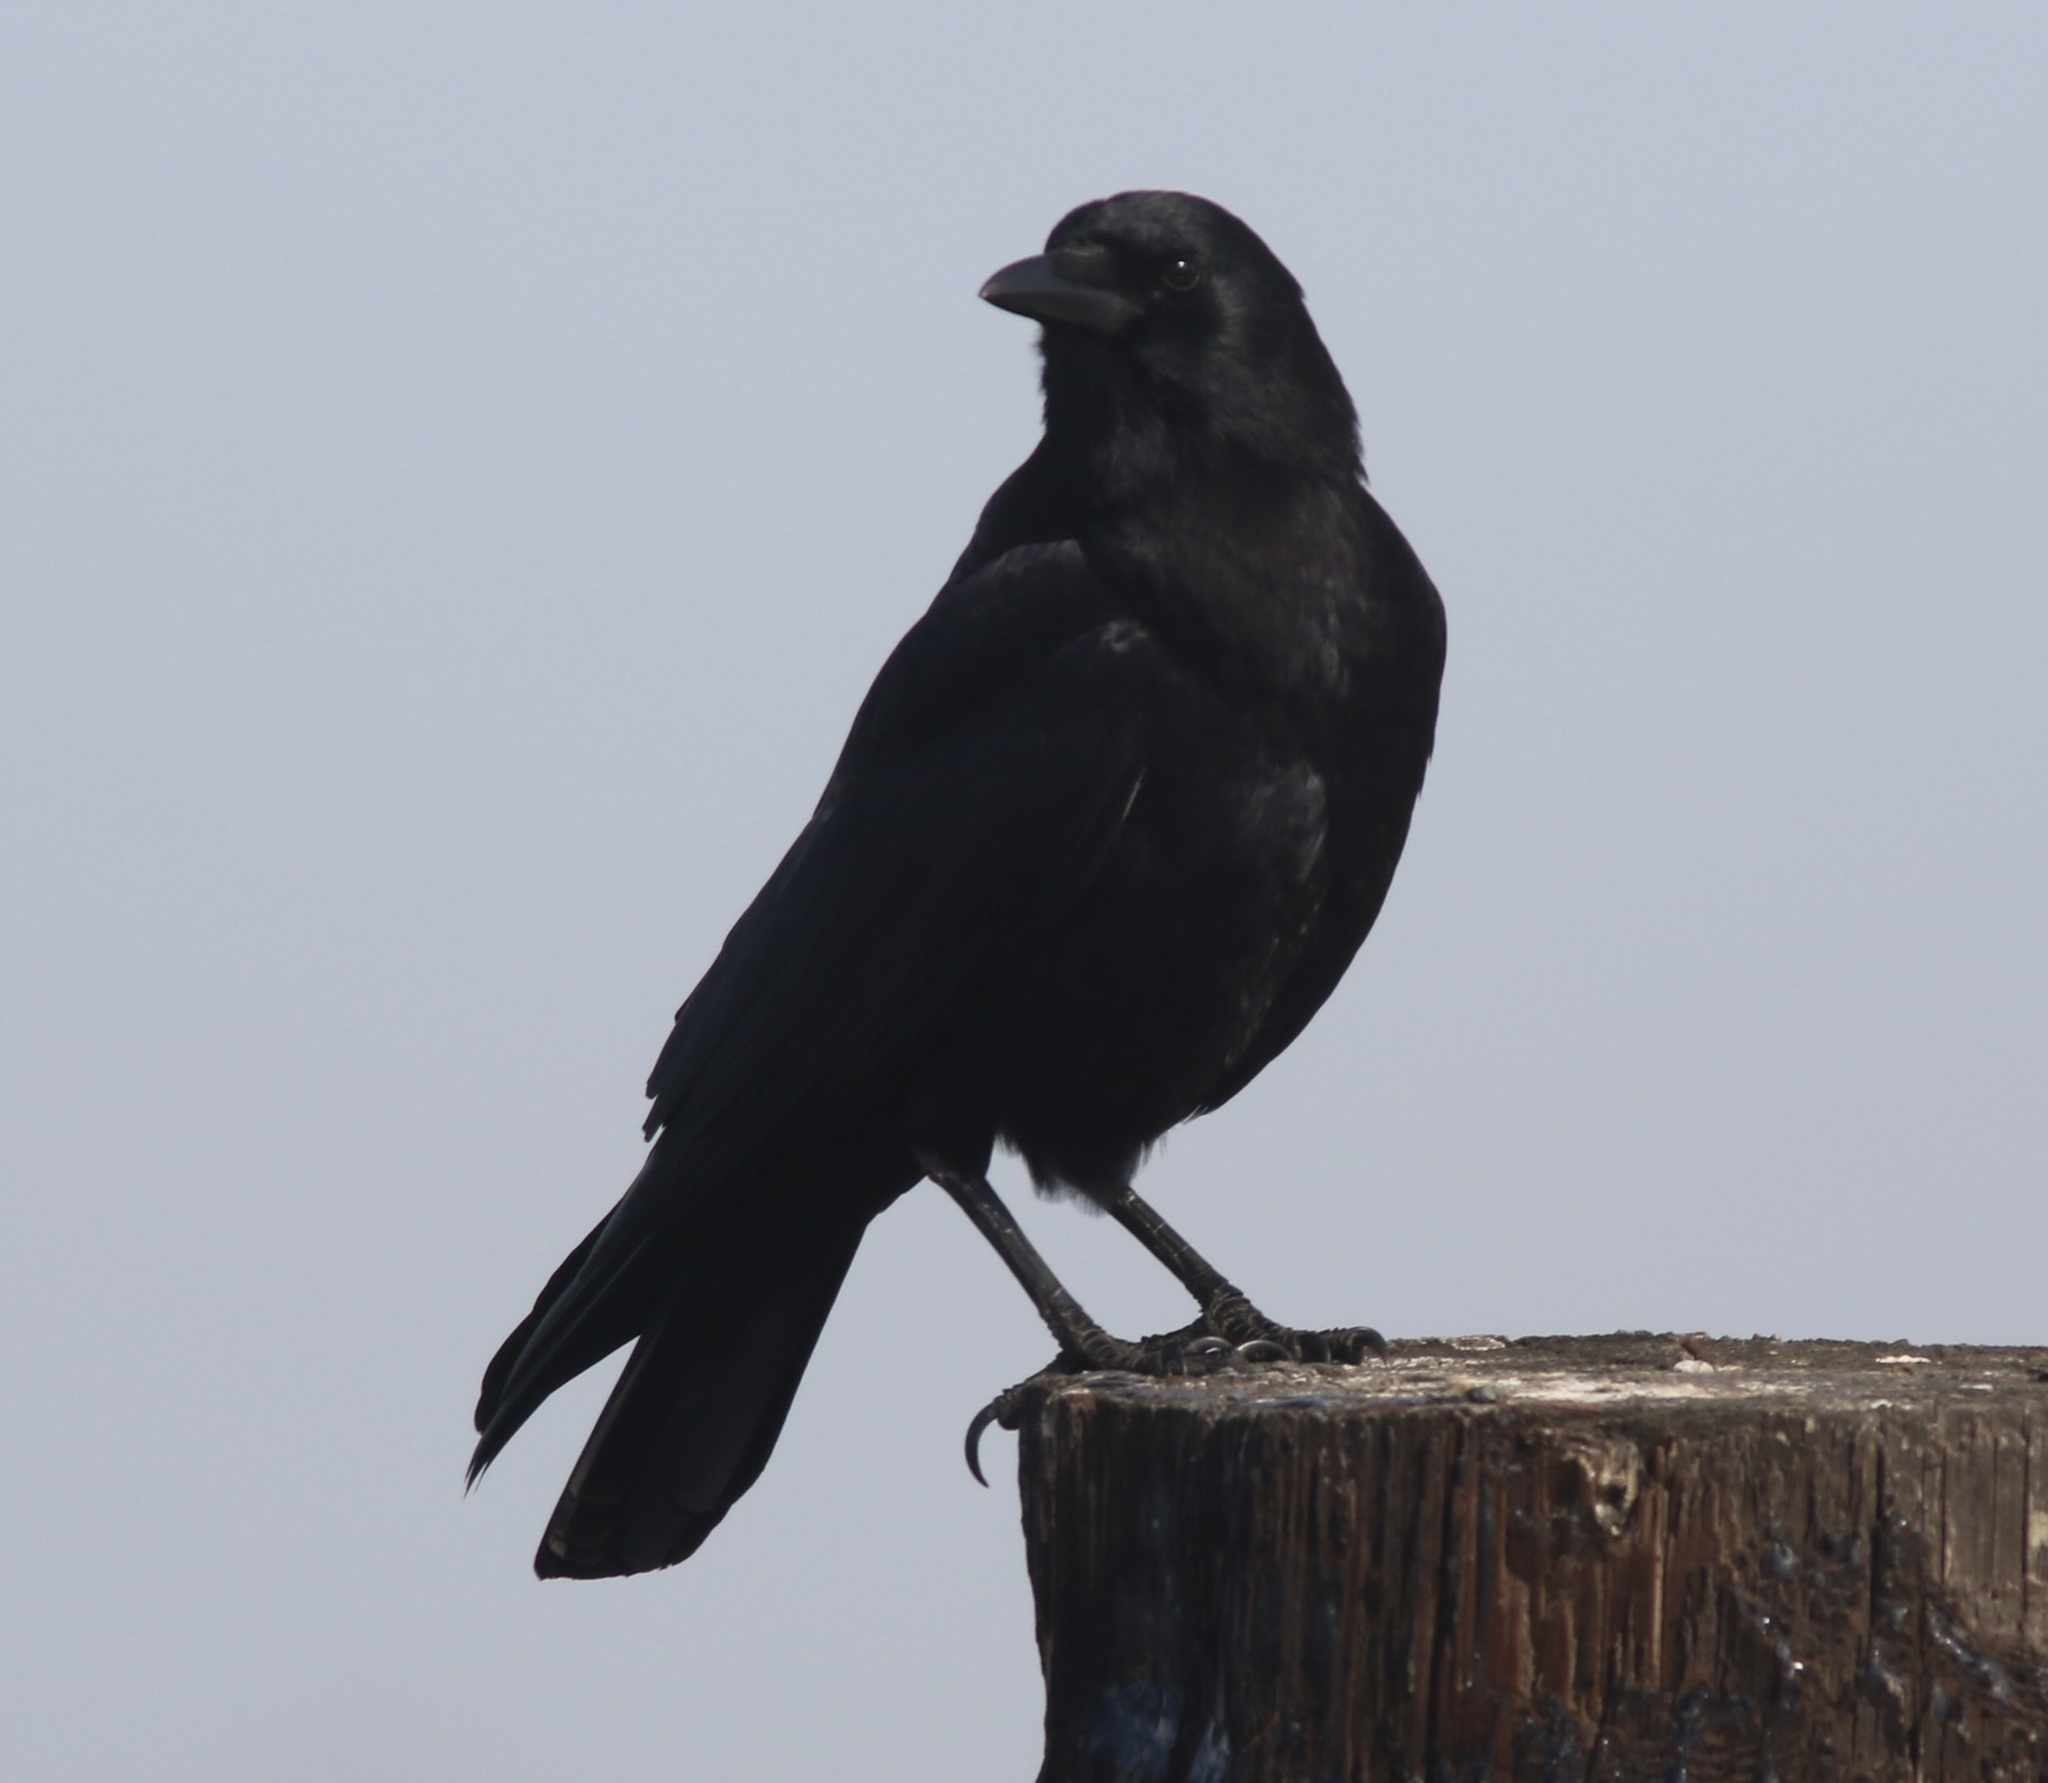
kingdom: Animalia
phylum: Chordata
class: Aves
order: Passeriformes
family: Corvidae
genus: Corvus
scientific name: Corvus brachyrhynchos
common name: American crow
